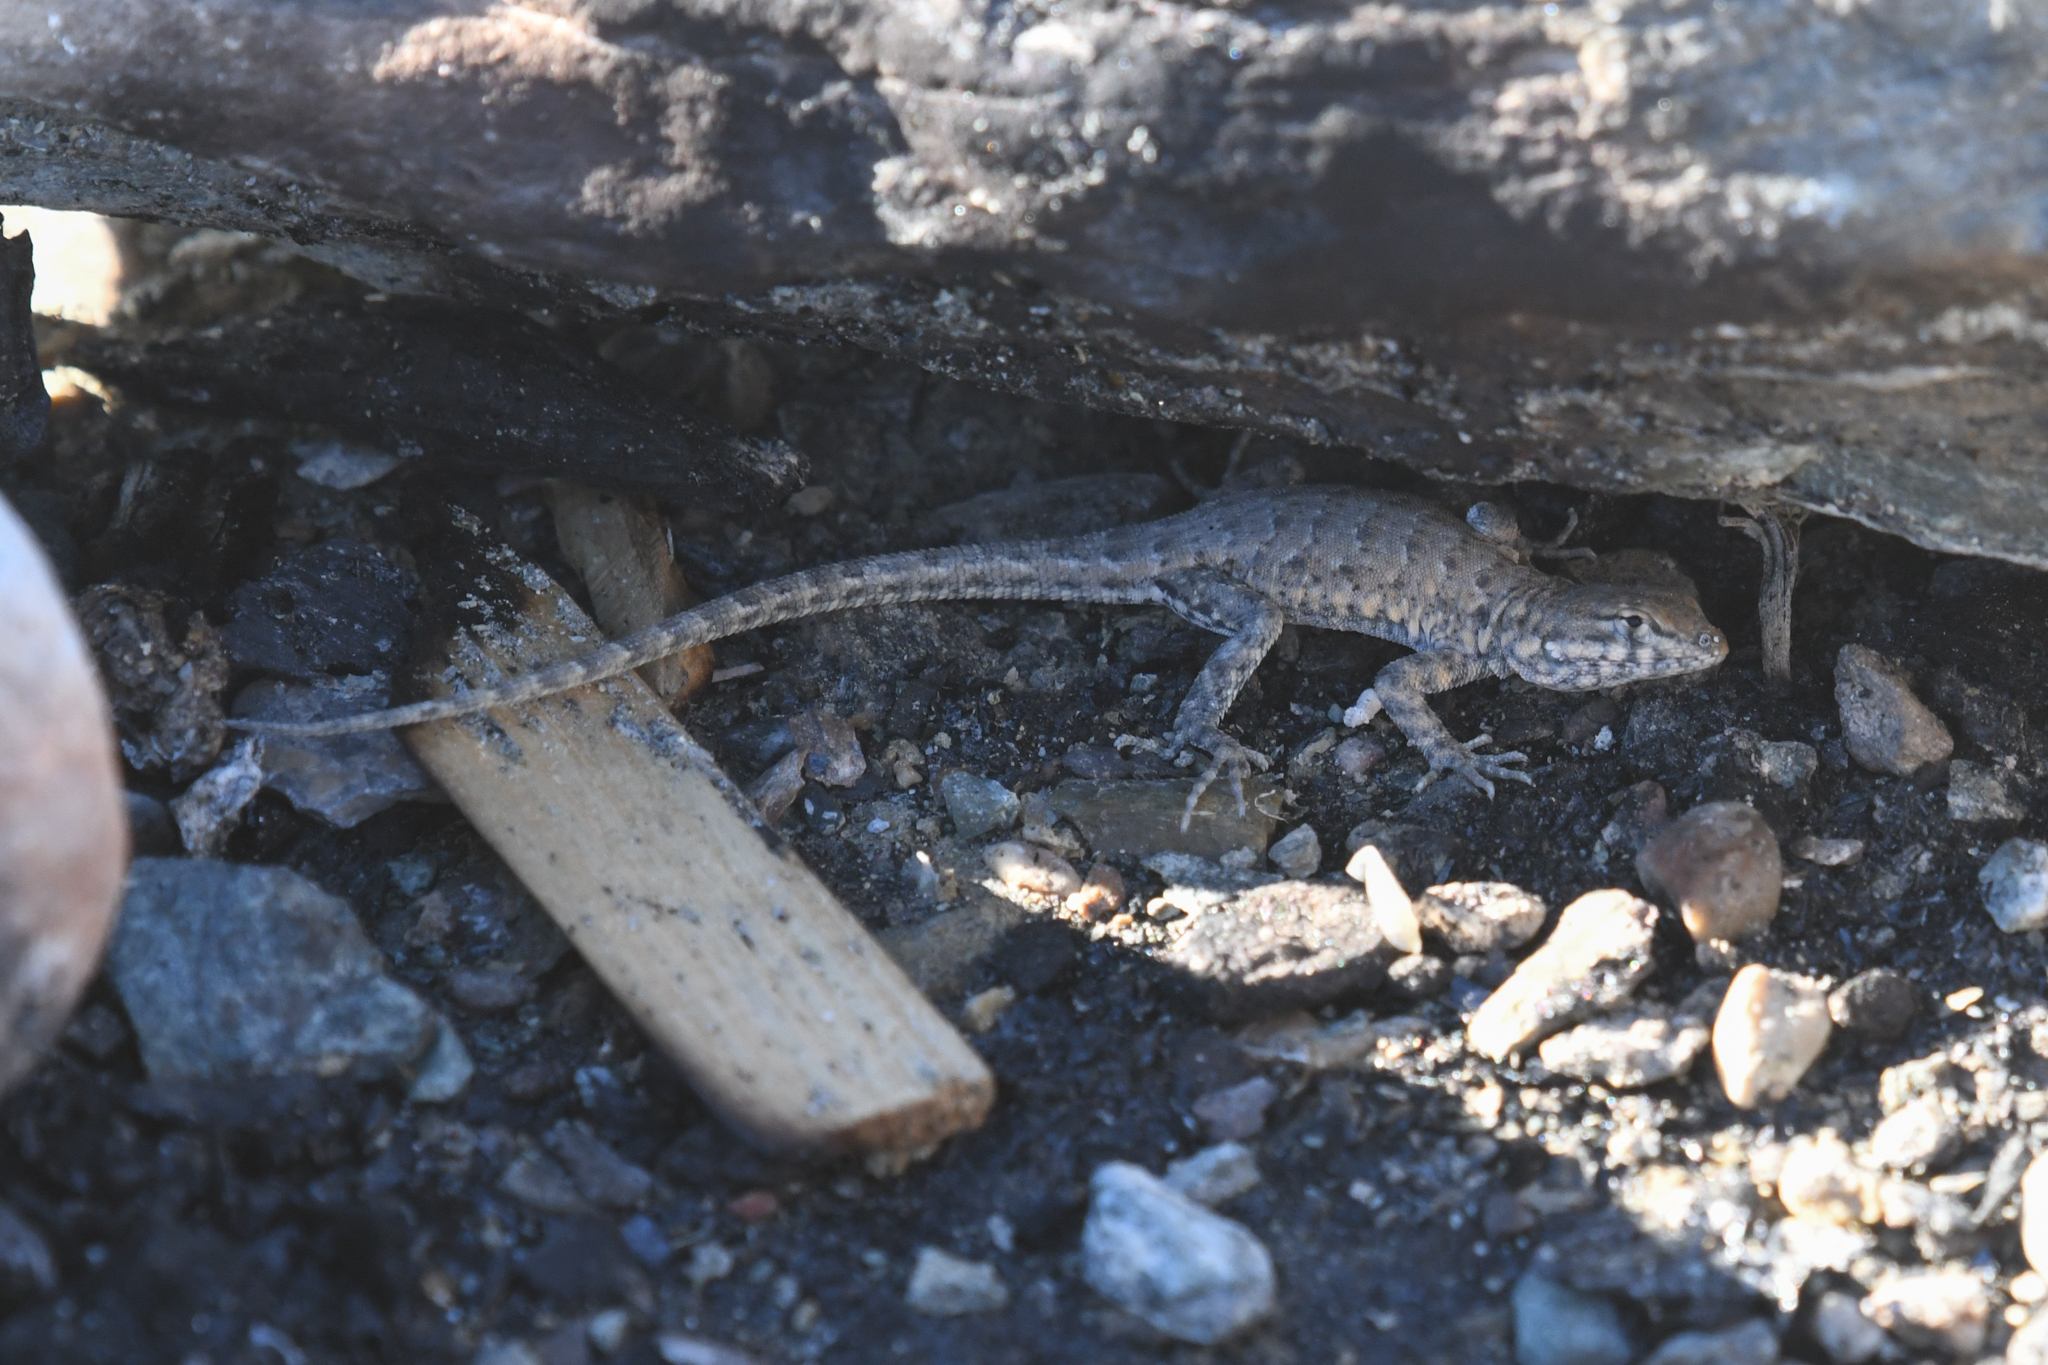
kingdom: Animalia
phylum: Chordata
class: Squamata
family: Phrynosomatidae
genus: Uta
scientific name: Uta stansburiana
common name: Side-blotched lizard
